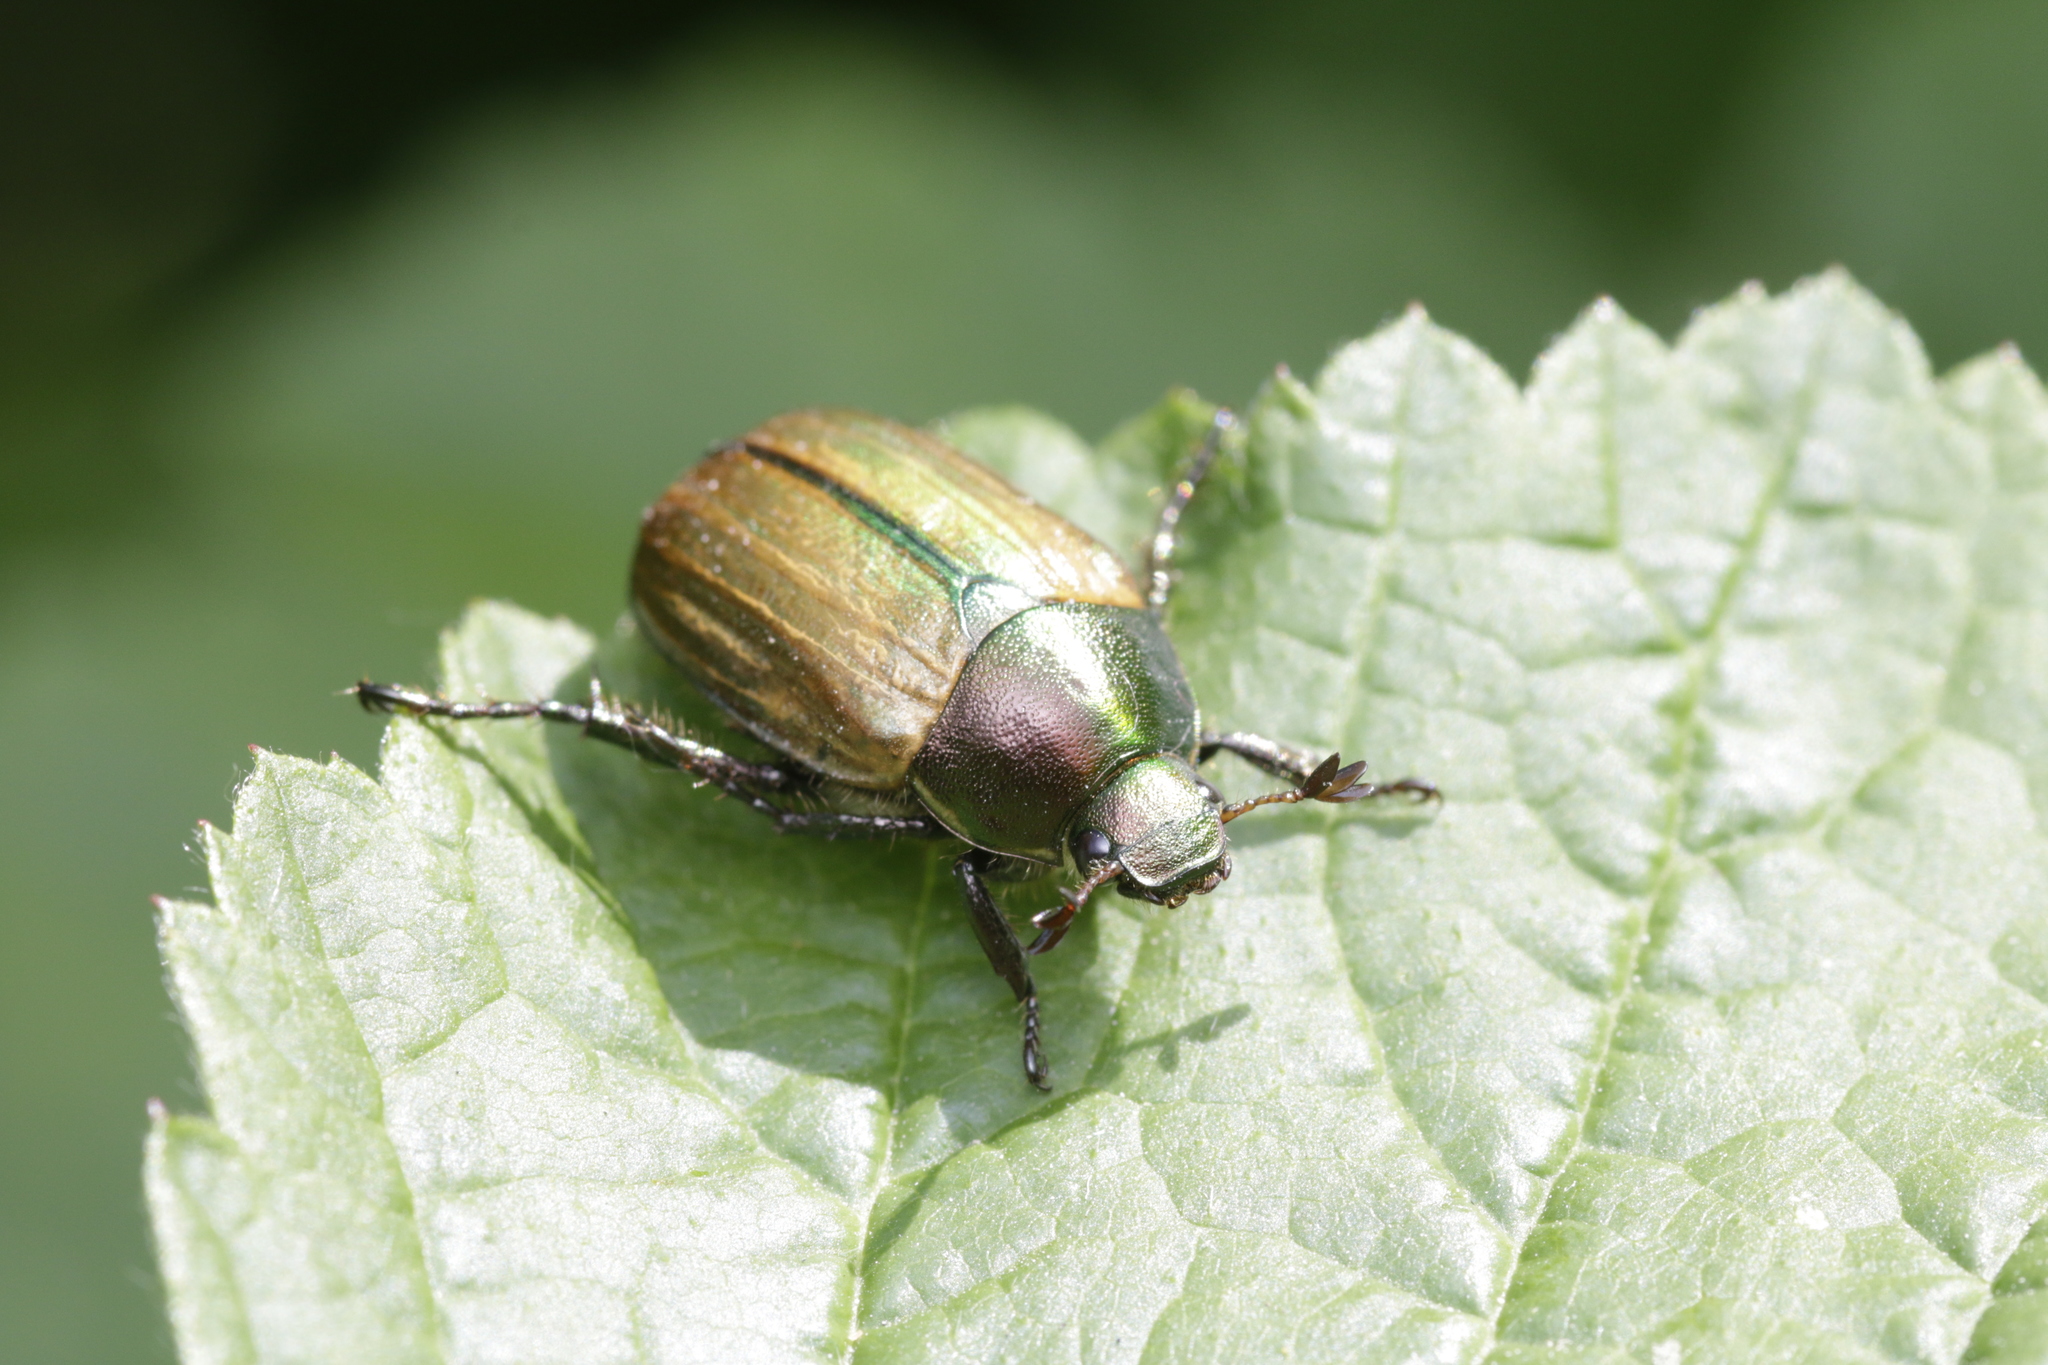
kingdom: Animalia
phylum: Arthropoda
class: Insecta
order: Coleoptera
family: Scarabaeidae
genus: Anomala
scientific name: Anomala dubia
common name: Dune chafer
